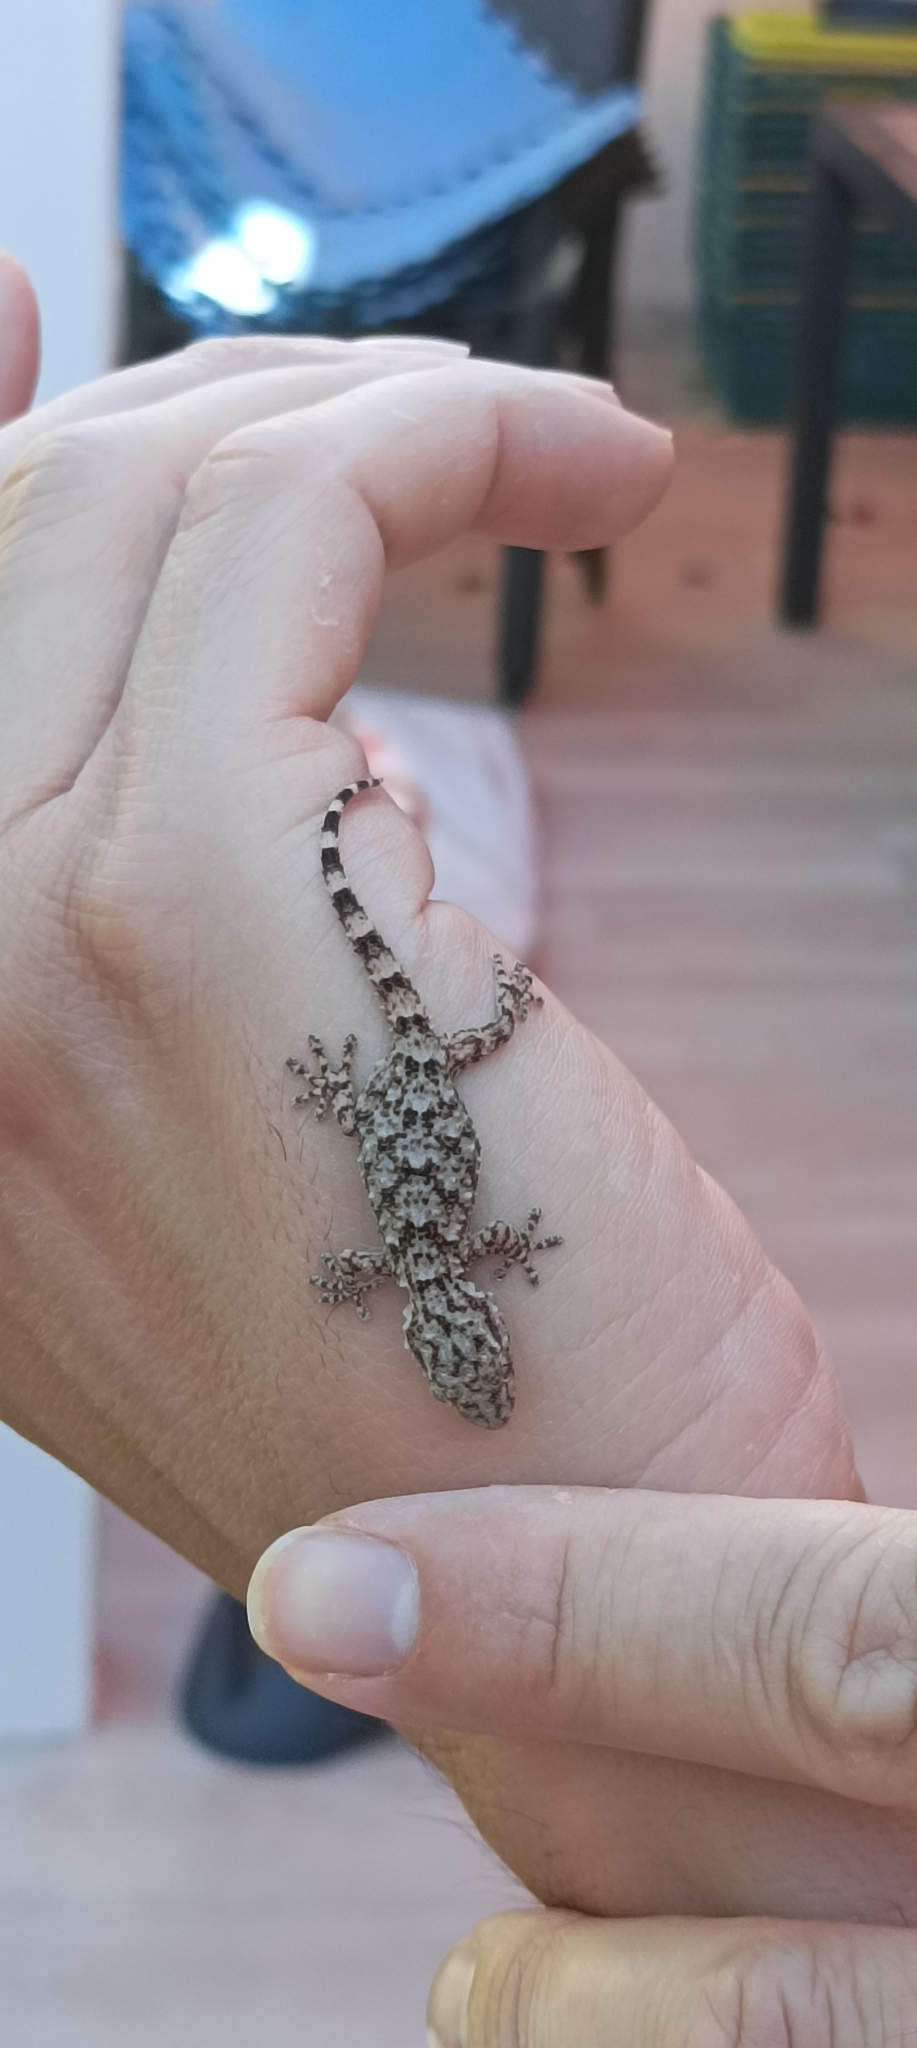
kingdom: Animalia
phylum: Chordata
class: Squamata
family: Phyllodactylidae
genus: Tarentola
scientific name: Tarentola mauritanica
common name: Moorish gecko
